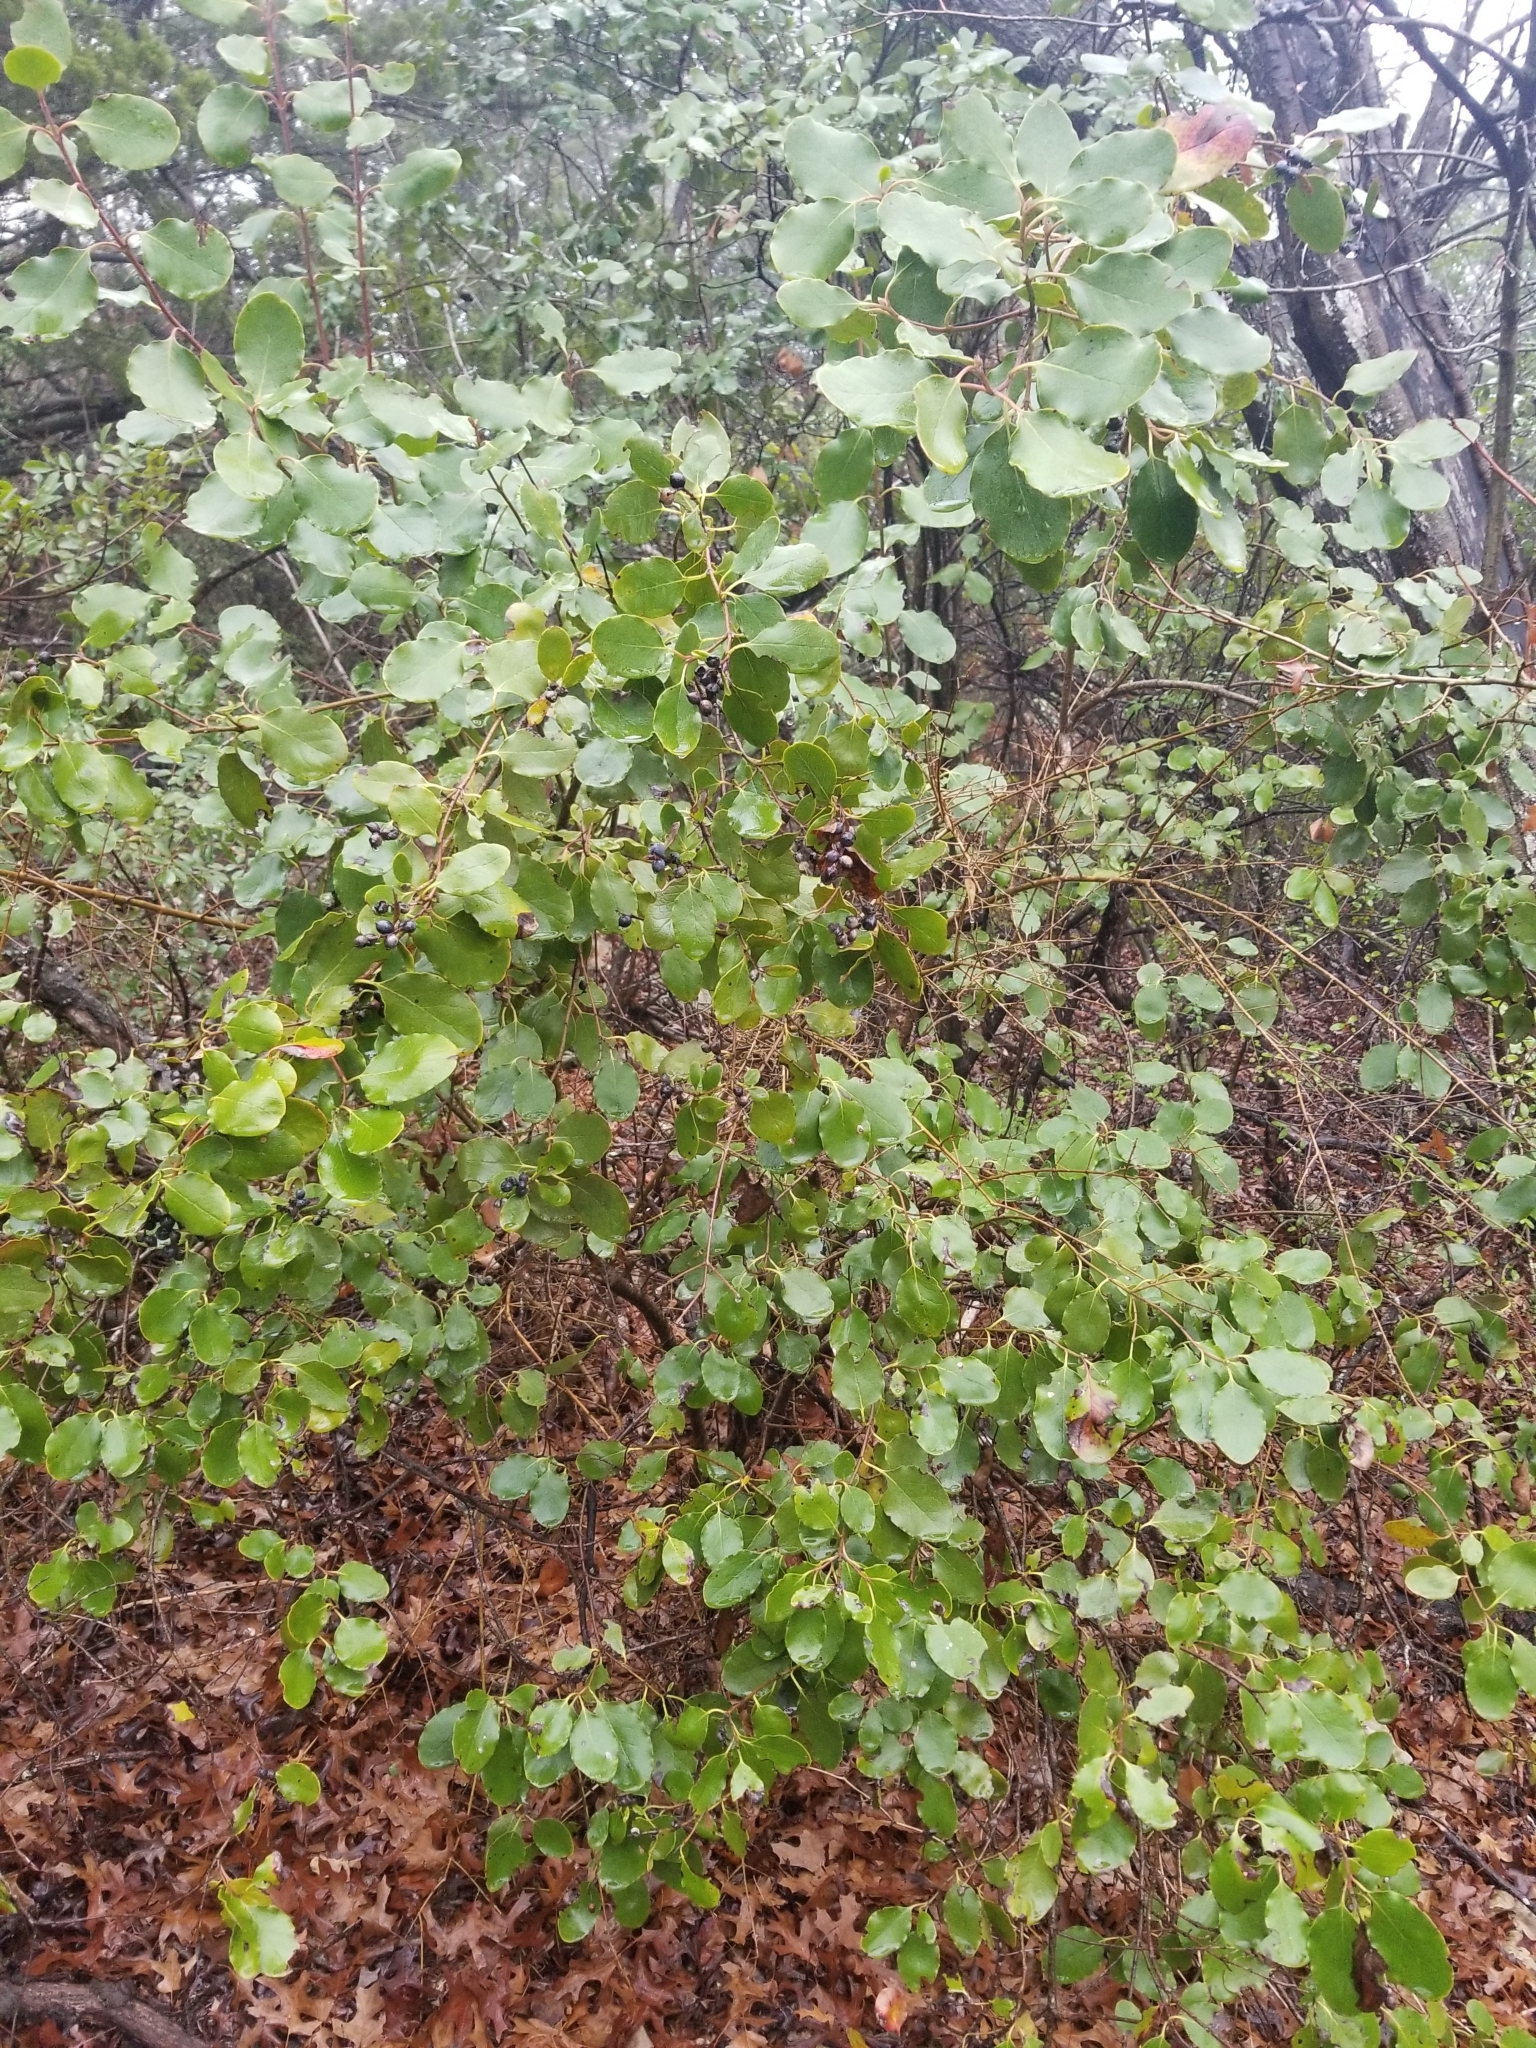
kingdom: Plantae
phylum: Tracheophyta
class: Magnoliopsida
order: Garryales
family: Garryaceae
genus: Garrya
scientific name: Garrya lindheimeri
